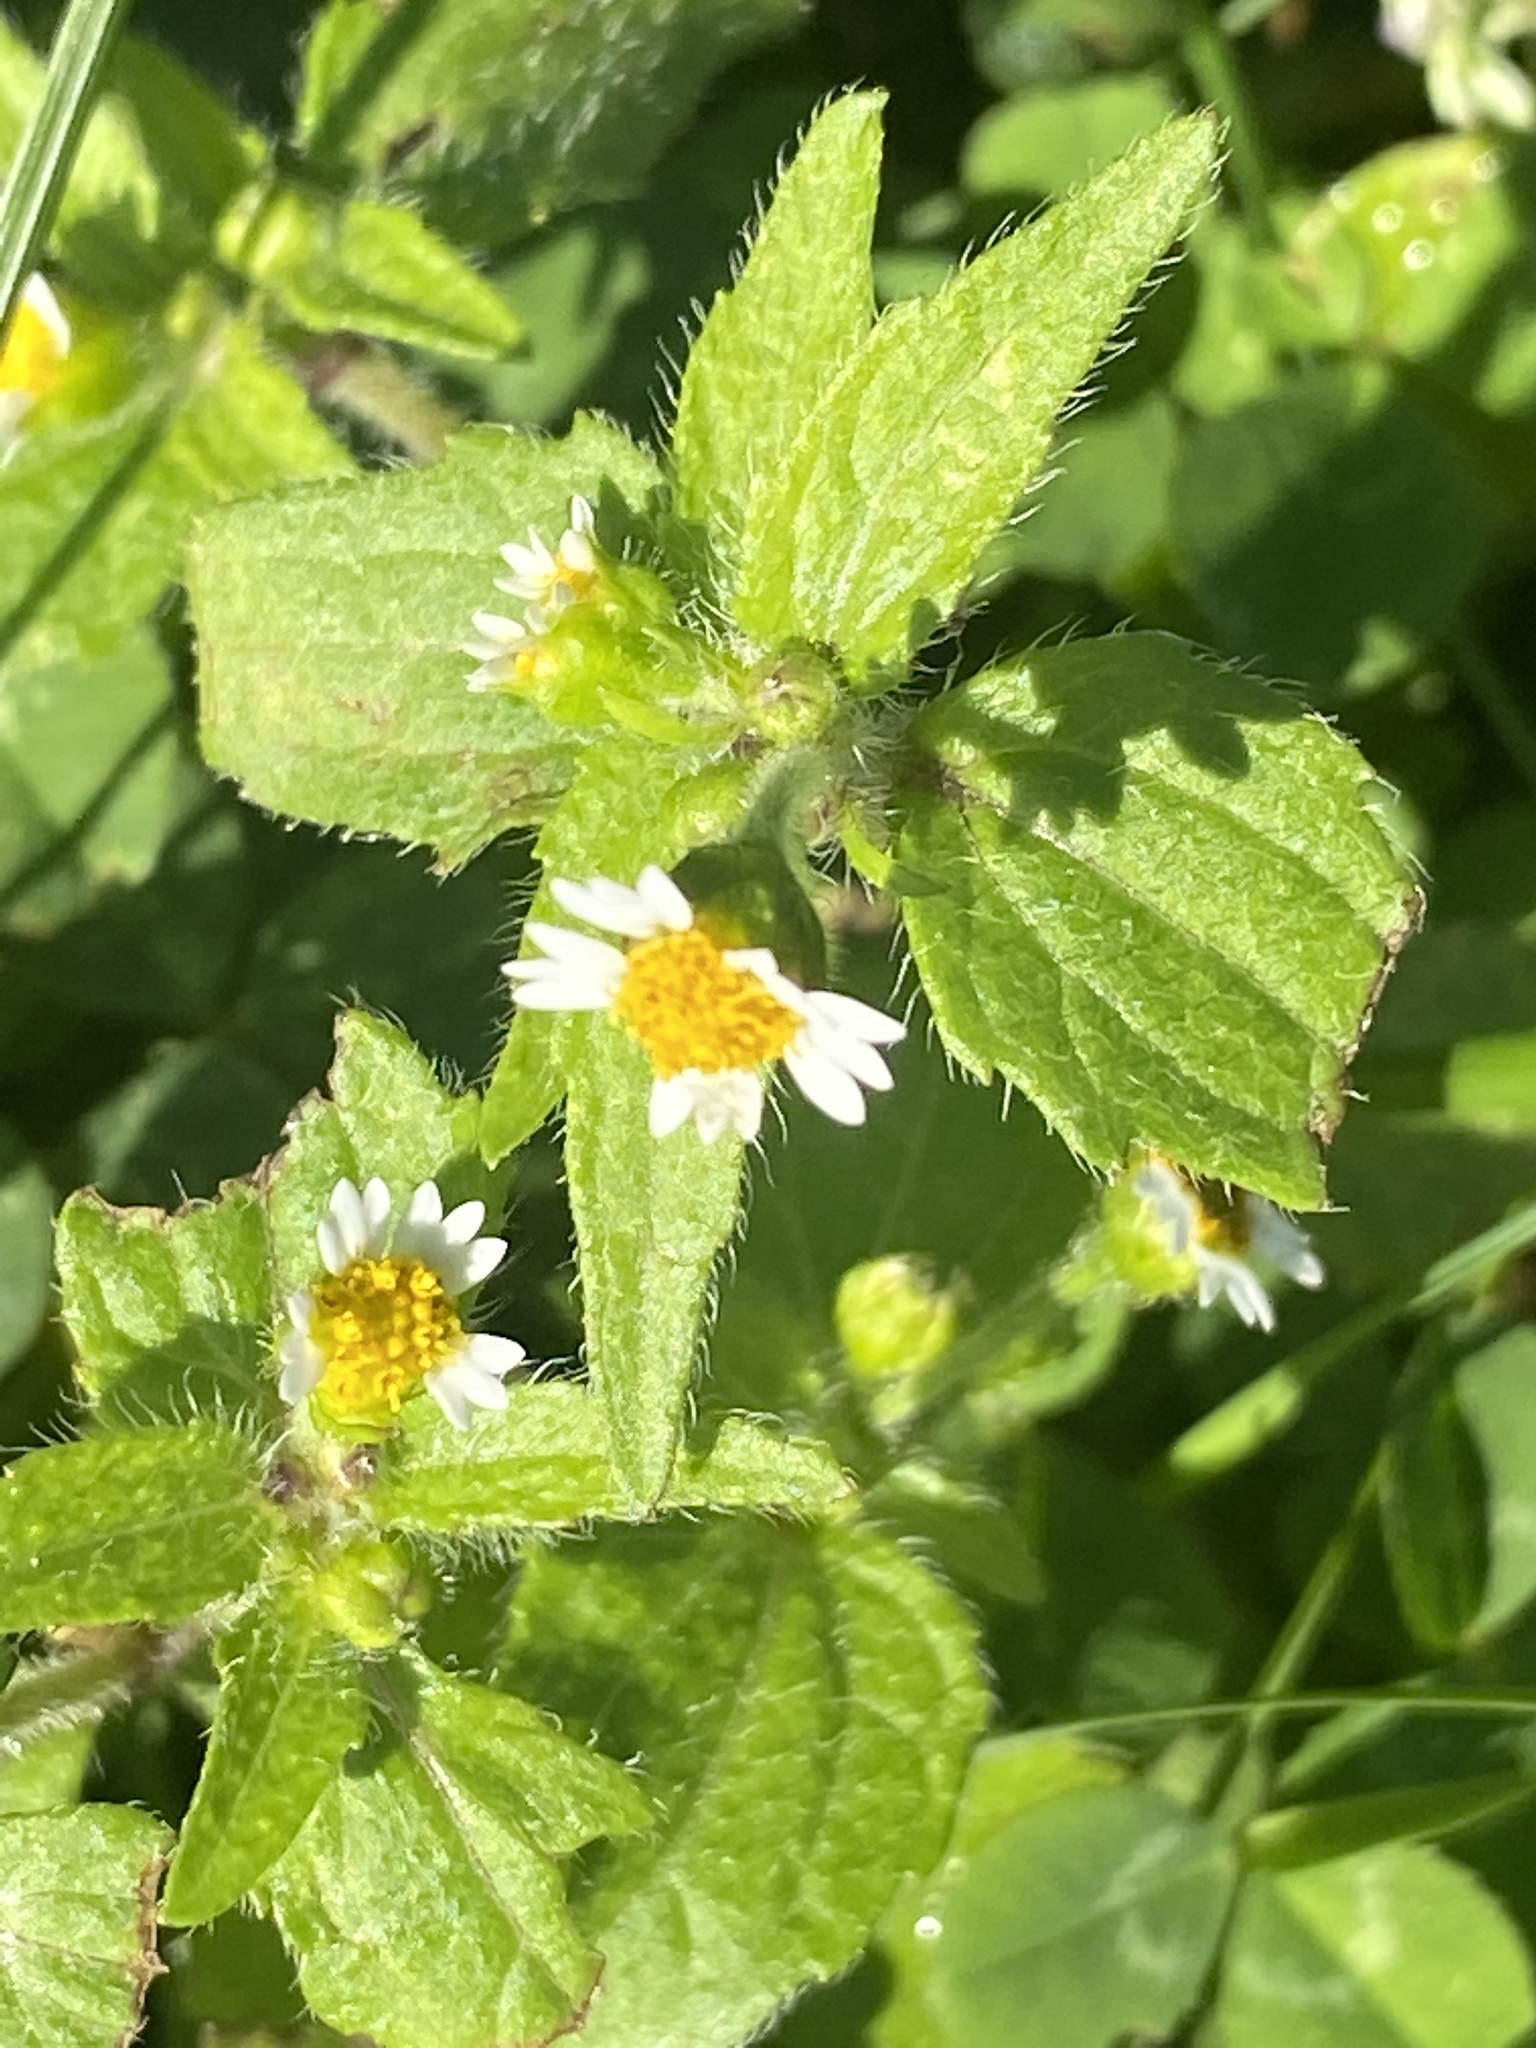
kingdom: Plantae
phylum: Tracheophyta
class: Magnoliopsida
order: Asterales
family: Asteraceae
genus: Galinsoga
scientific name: Galinsoga quadriradiata
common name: Shaggy soldier
